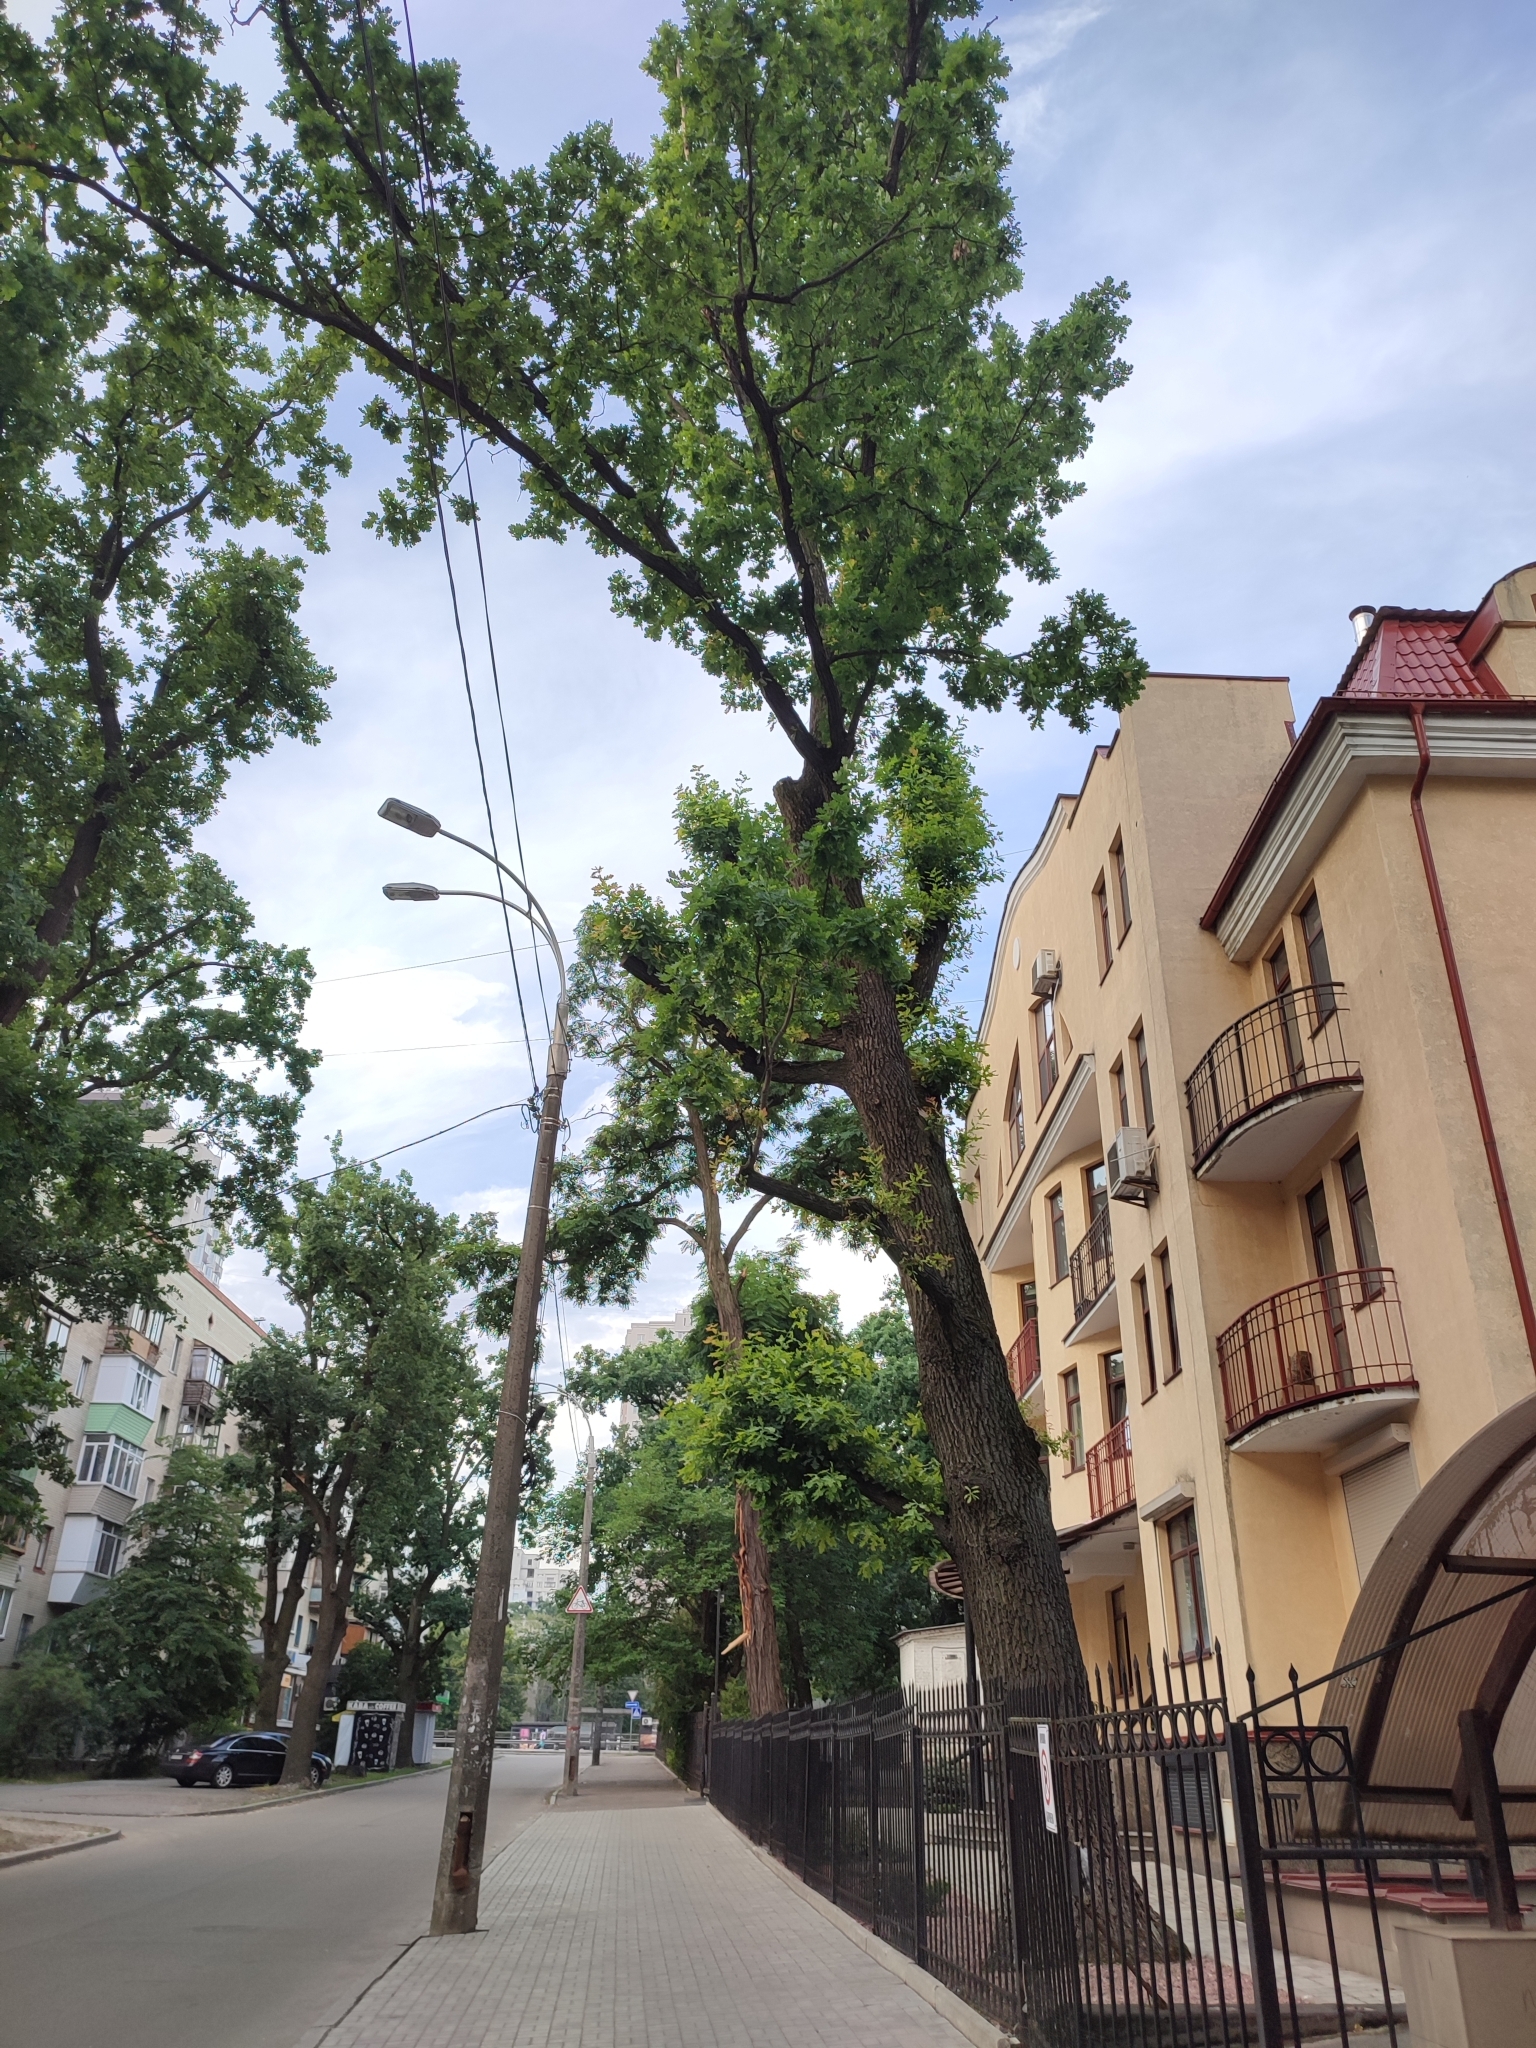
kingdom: Plantae
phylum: Tracheophyta
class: Magnoliopsida
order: Fagales
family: Fagaceae
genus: Quercus
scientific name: Quercus robur
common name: Pedunculate oak
